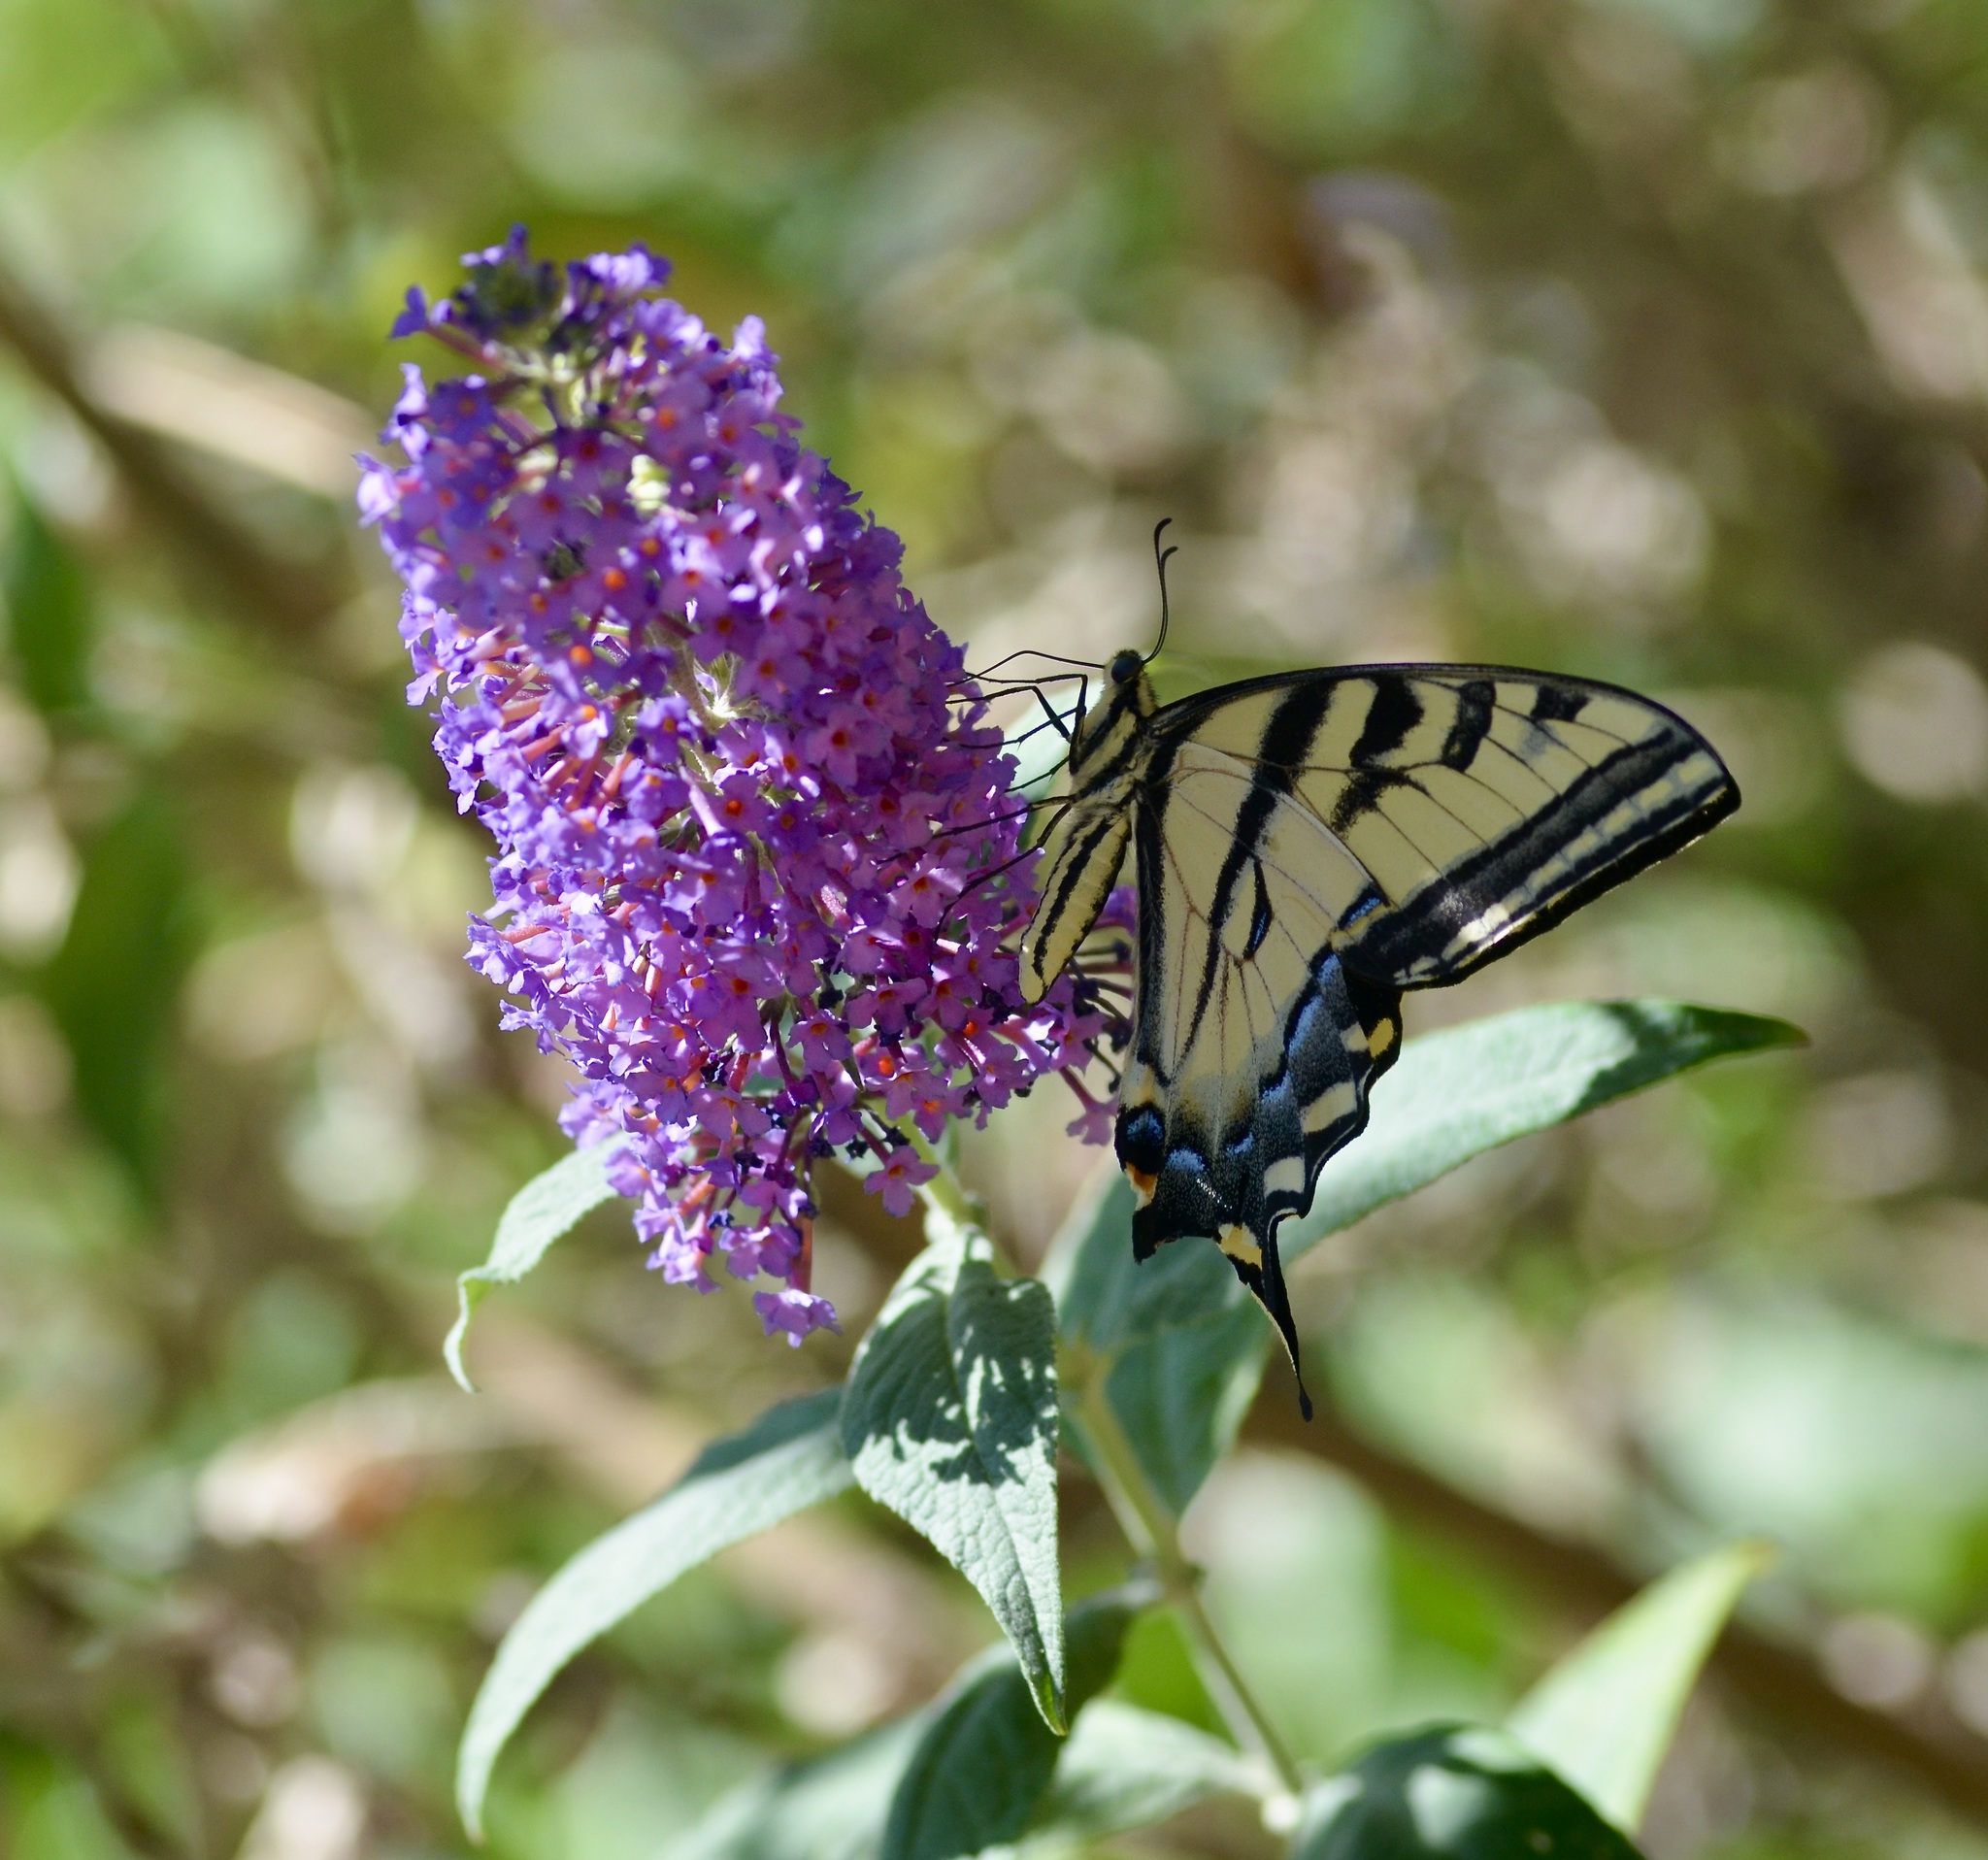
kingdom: Animalia
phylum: Arthropoda
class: Insecta
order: Lepidoptera
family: Papilionidae
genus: Papilio
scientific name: Papilio rutulus
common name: Western tiger swallowtail
